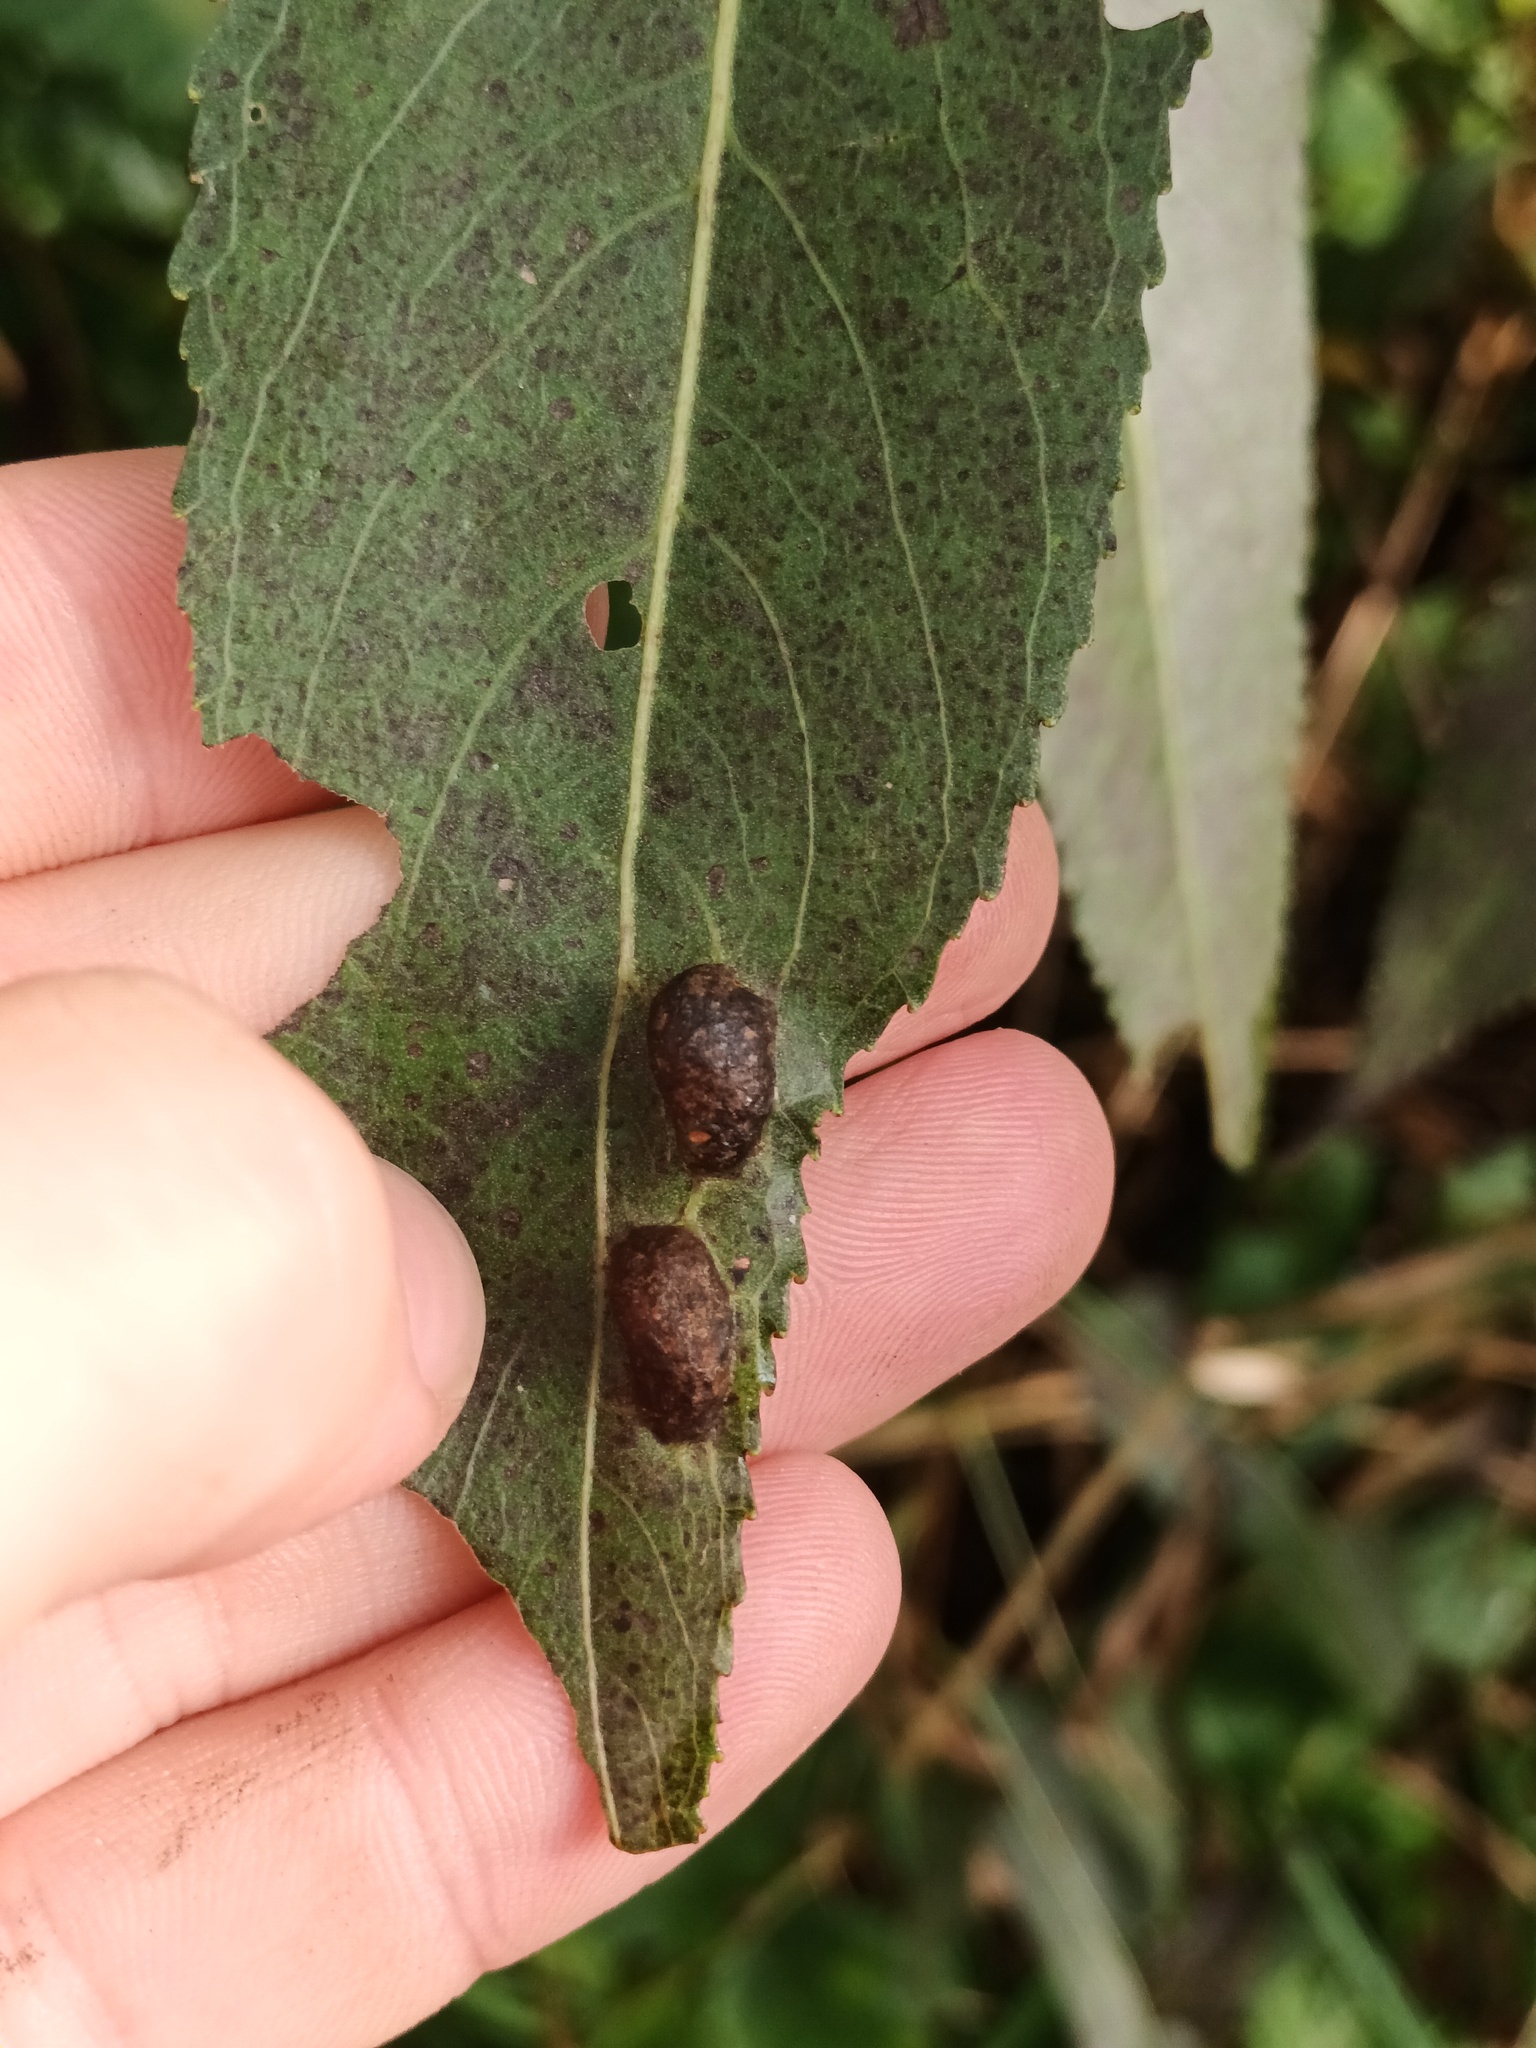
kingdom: Animalia
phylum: Arthropoda
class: Insecta
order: Hymenoptera
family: Tenthredinidae
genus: Pontania
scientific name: Pontania proxima
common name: Common sawfly
